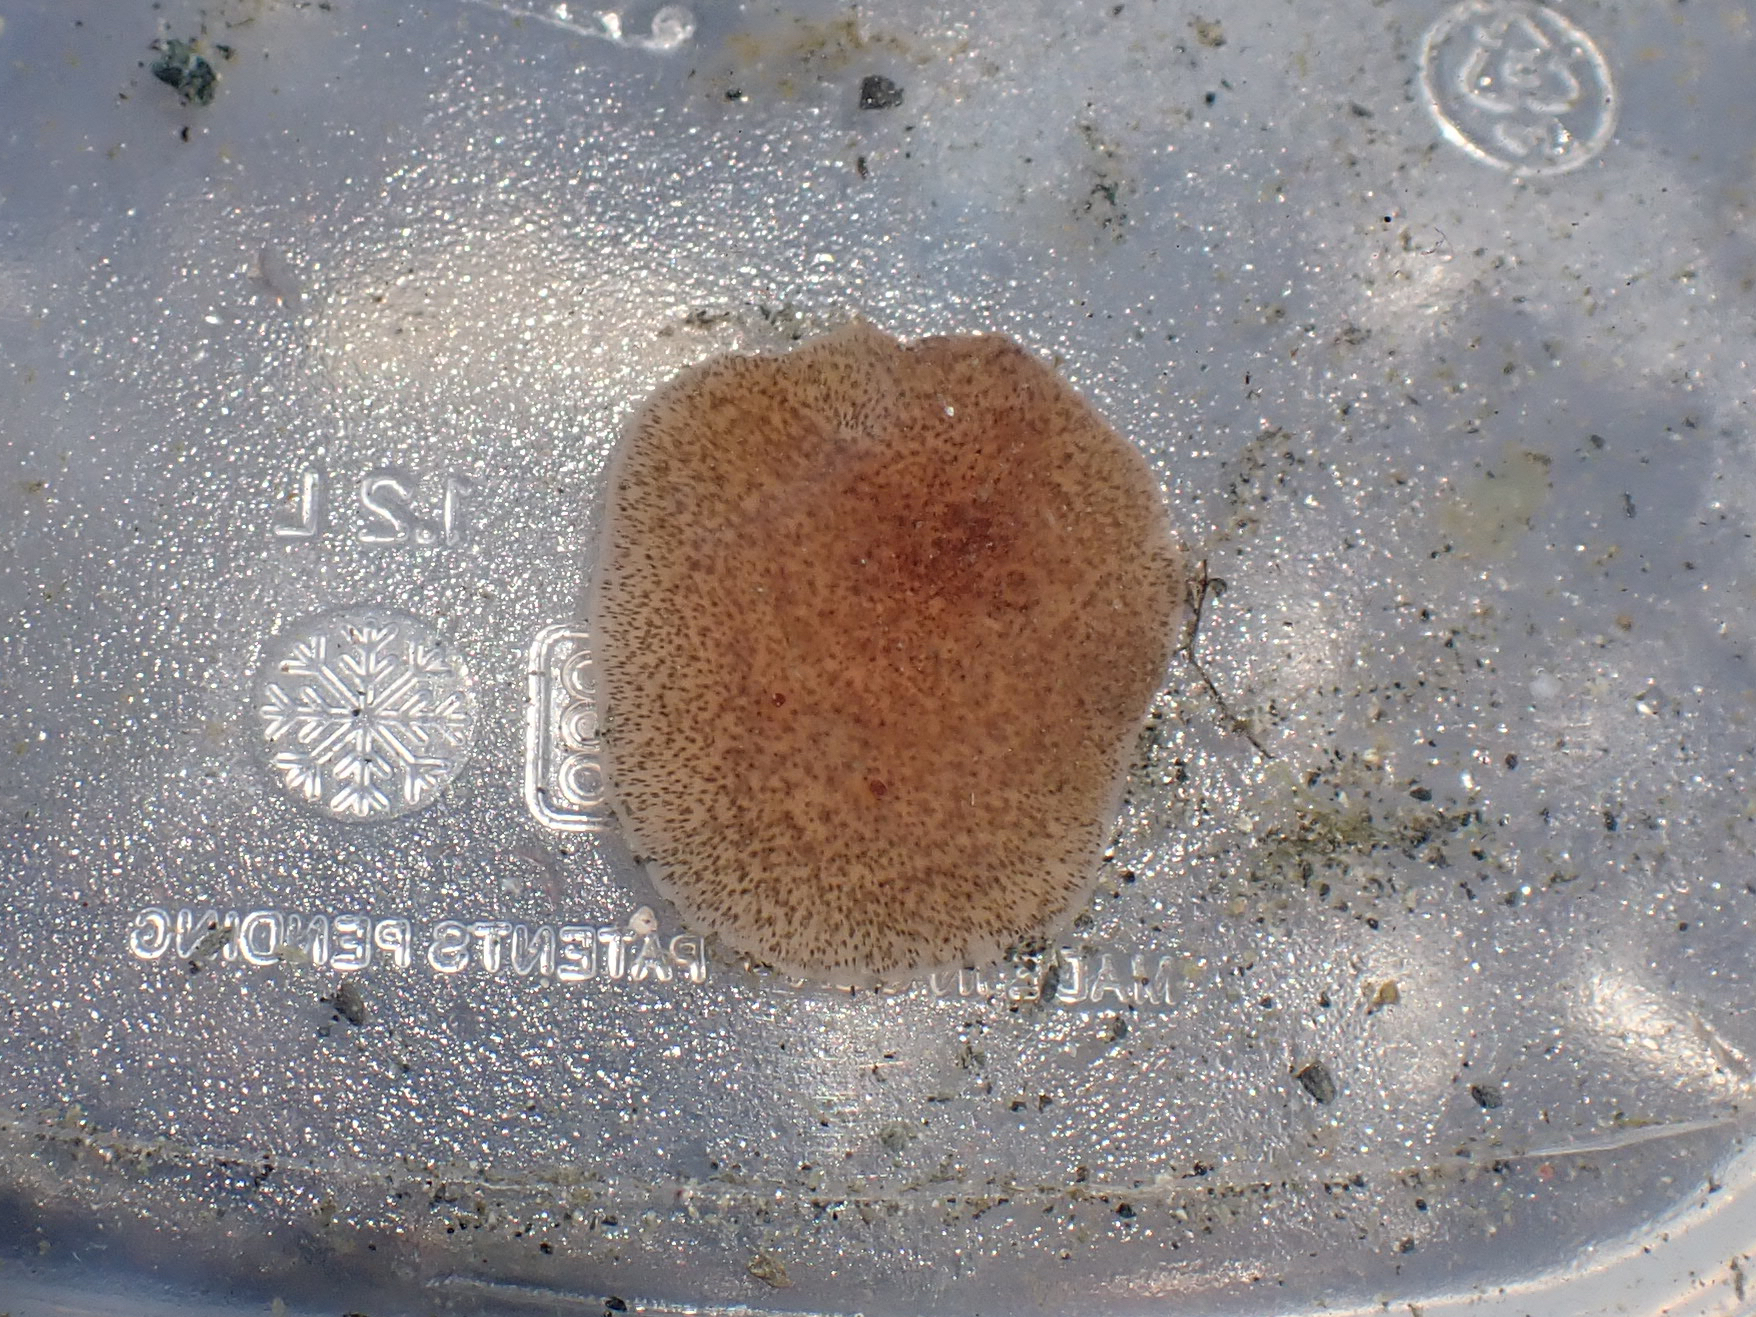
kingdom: Animalia
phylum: Platyhelminthes
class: Turbellaria
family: Callioplanidae
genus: Kaburakia
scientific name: Kaburakia excelsa
